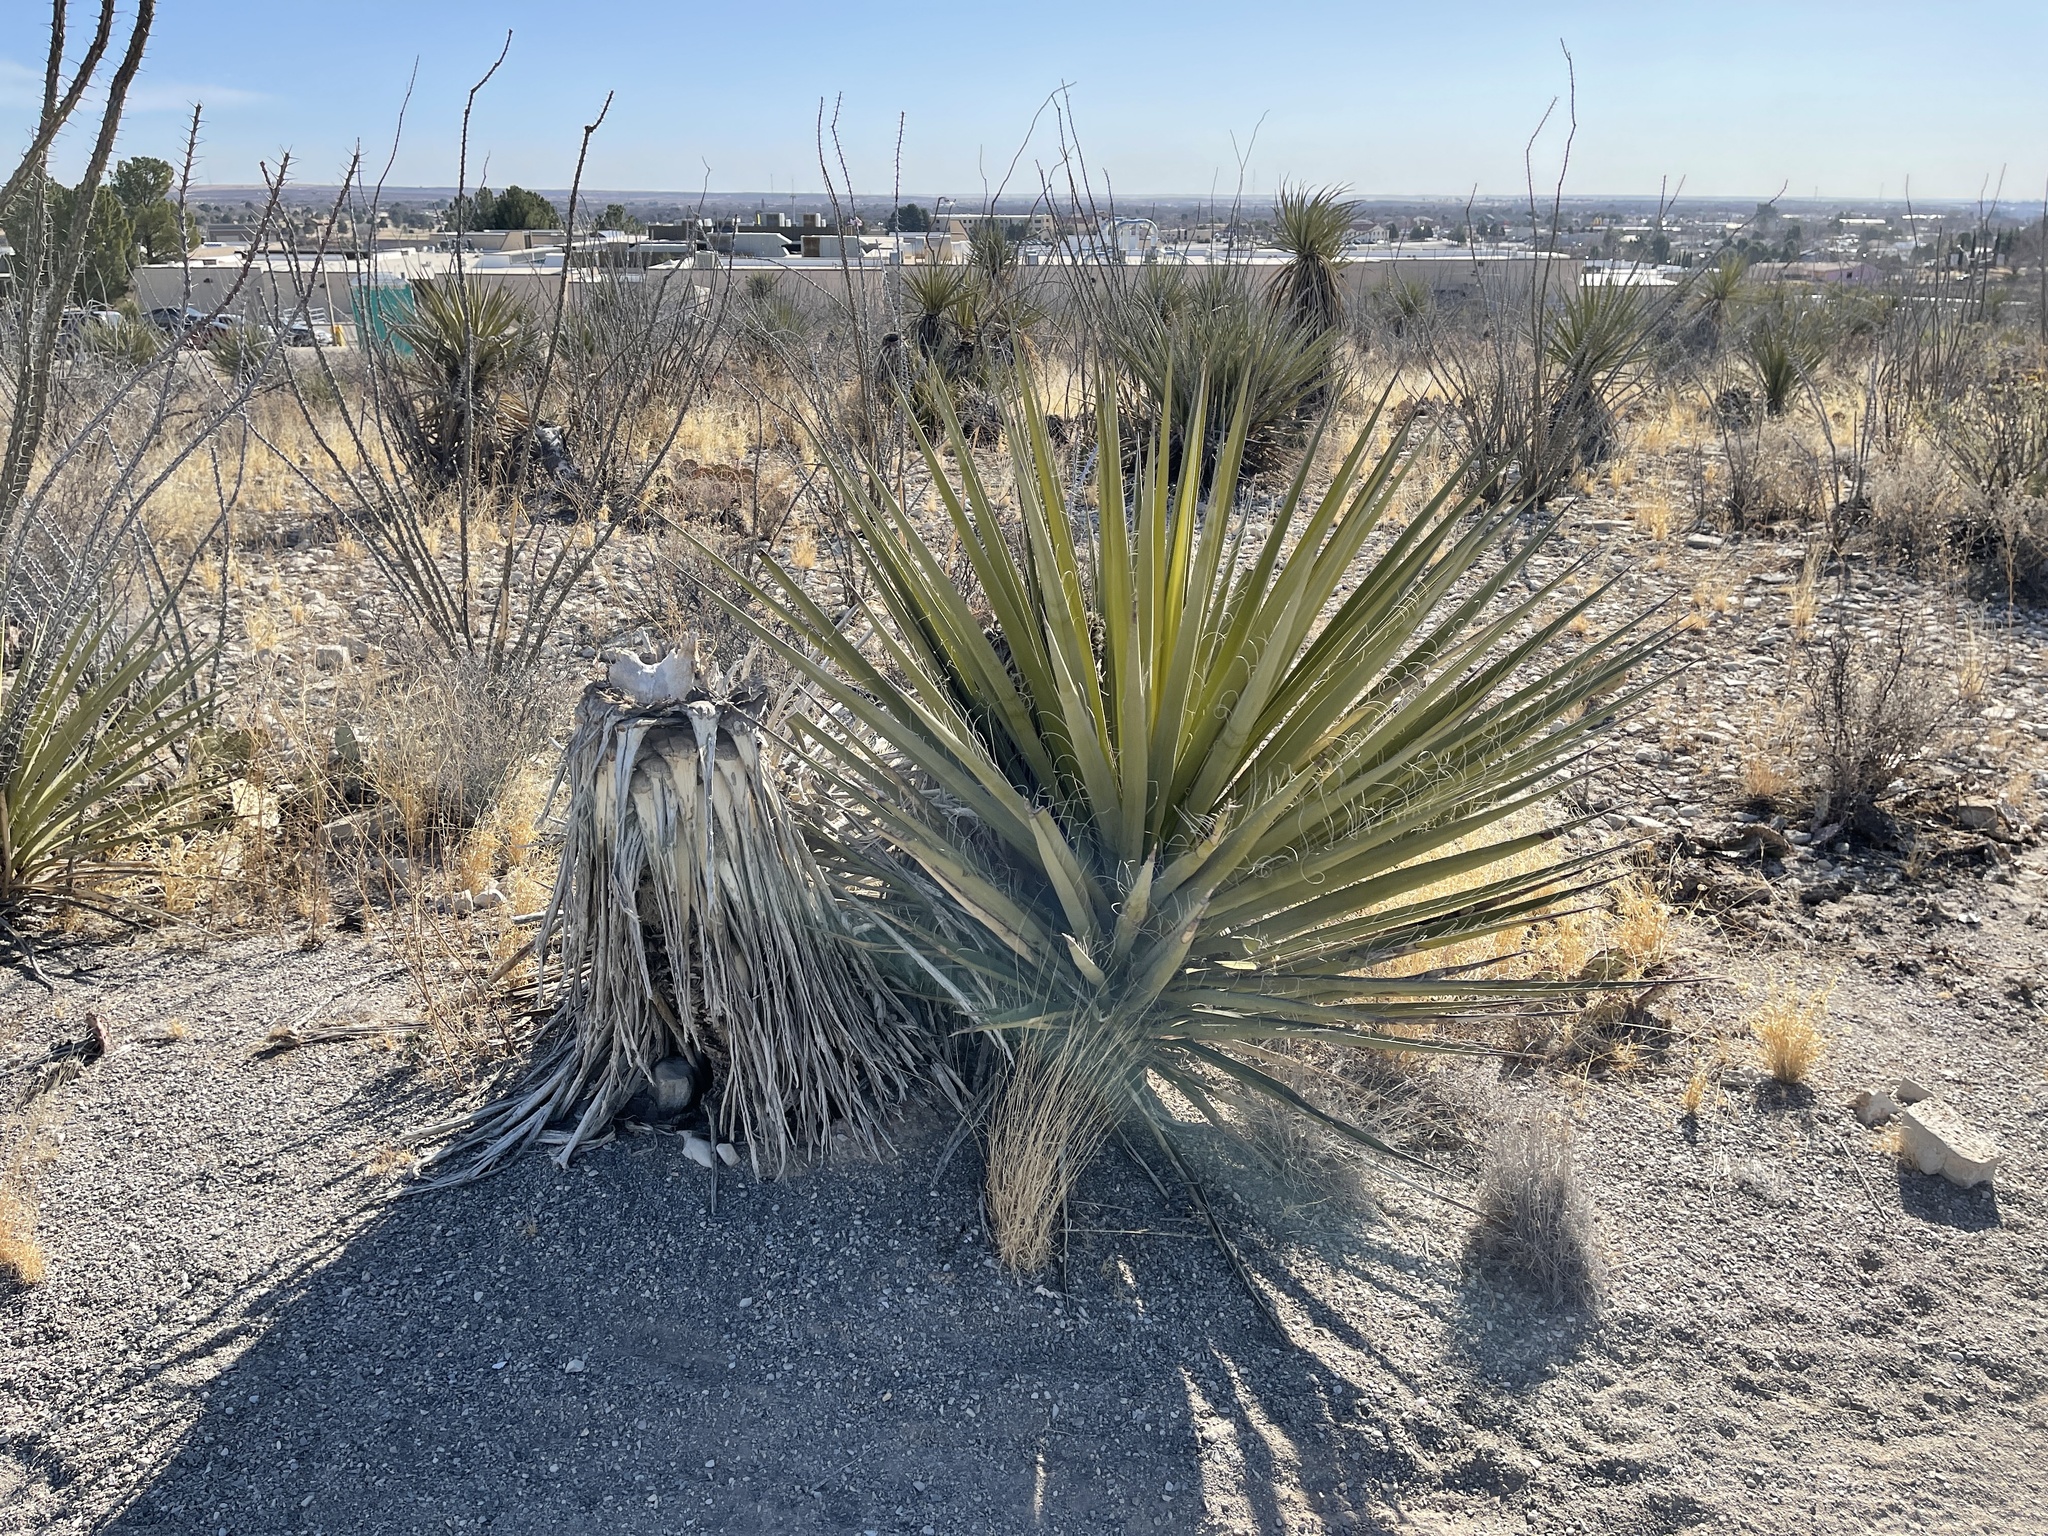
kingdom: Plantae
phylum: Tracheophyta
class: Liliopsida
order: Asparagales
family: Asparagaceae
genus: Yucca
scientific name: Yucca faxoniana
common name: Spanish dagger
